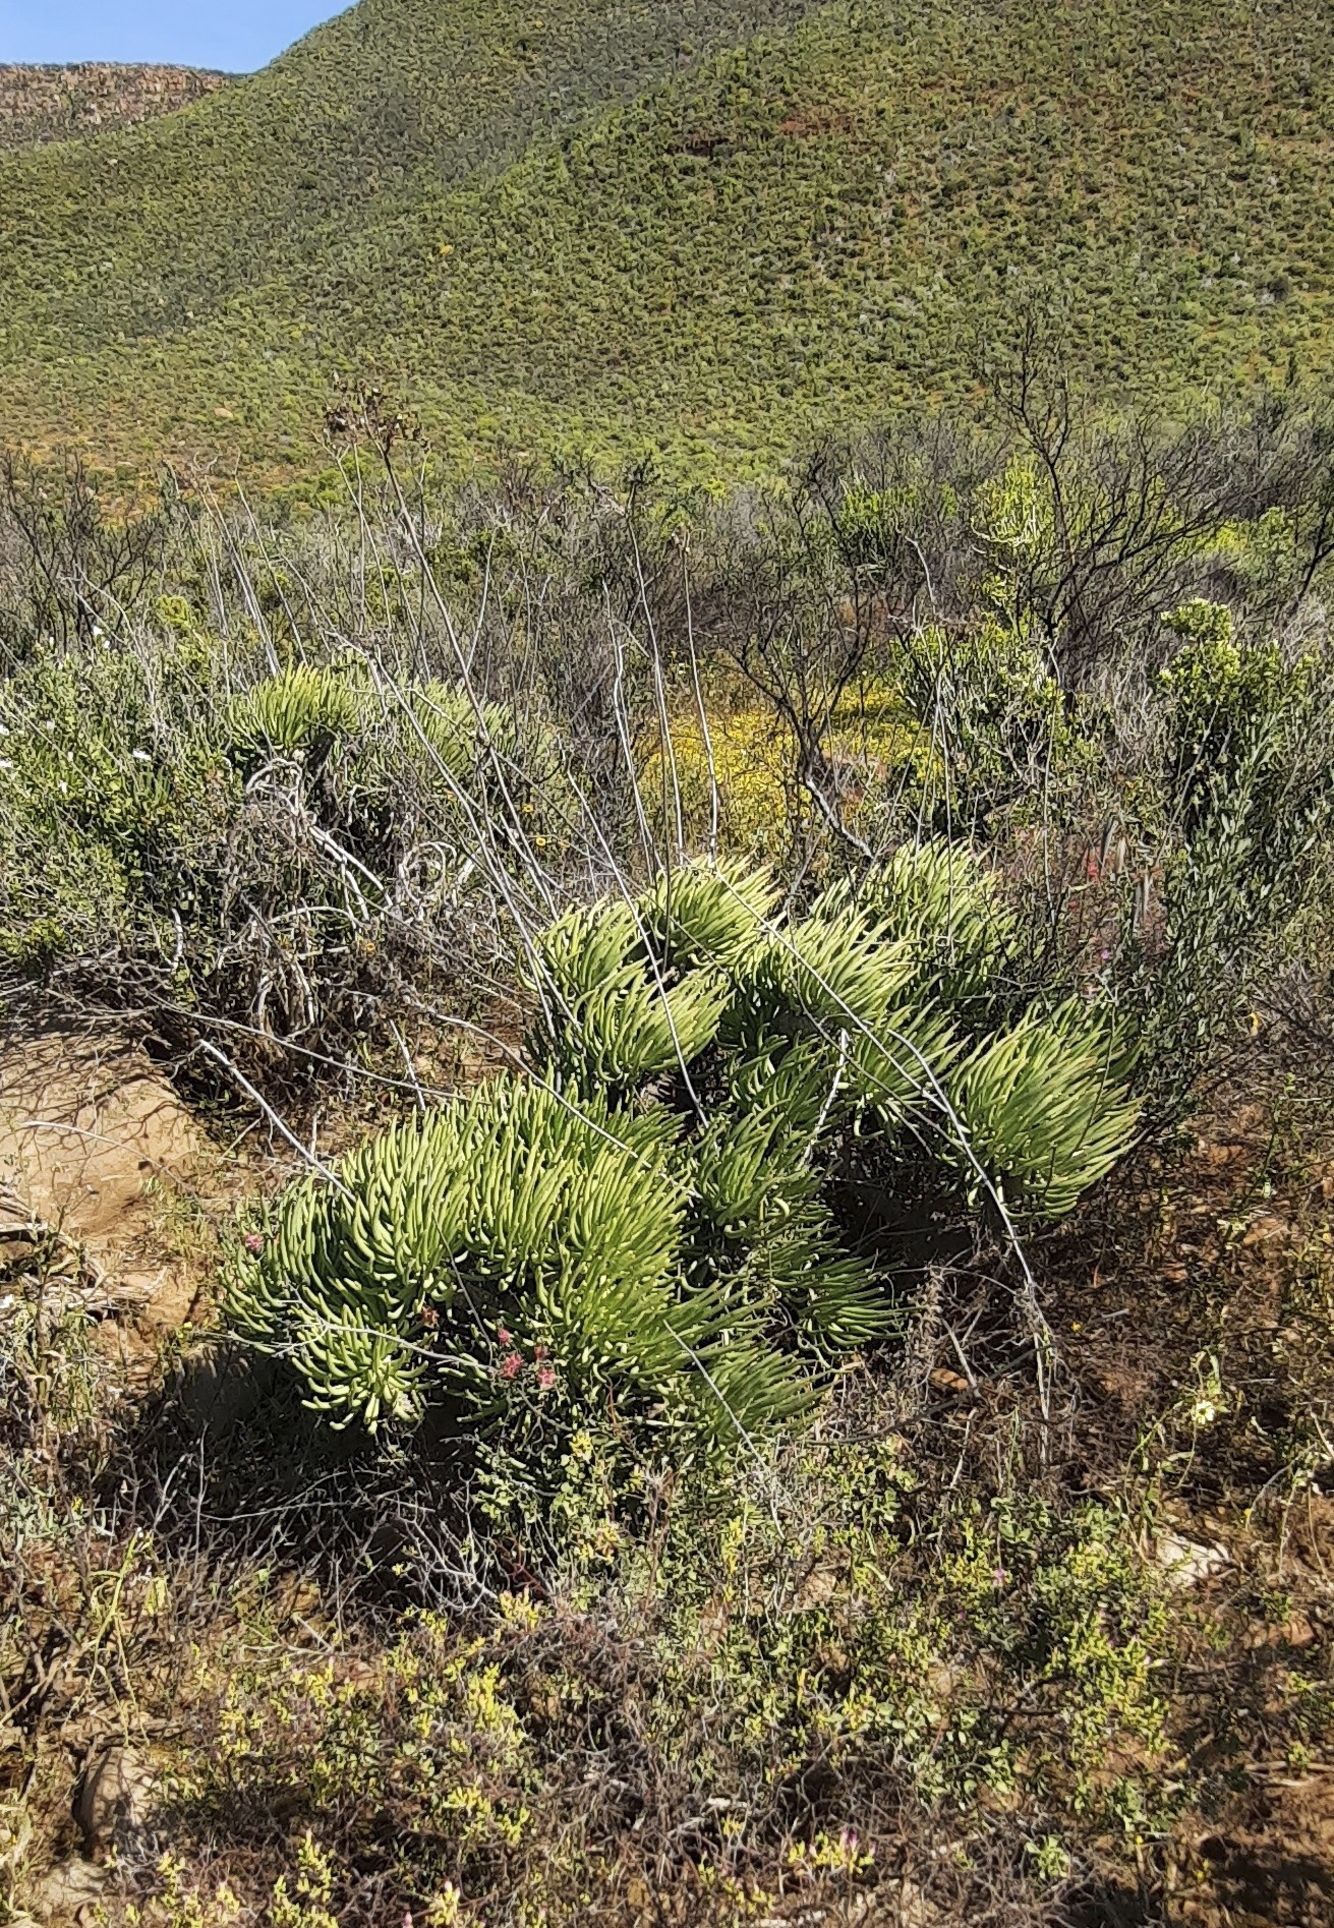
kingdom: Plantae
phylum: Tracheophyta
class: Magnoliopsida
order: Saxifragales
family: Crassulaceae
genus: Tylecodon
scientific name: Tylecodon wallichii
